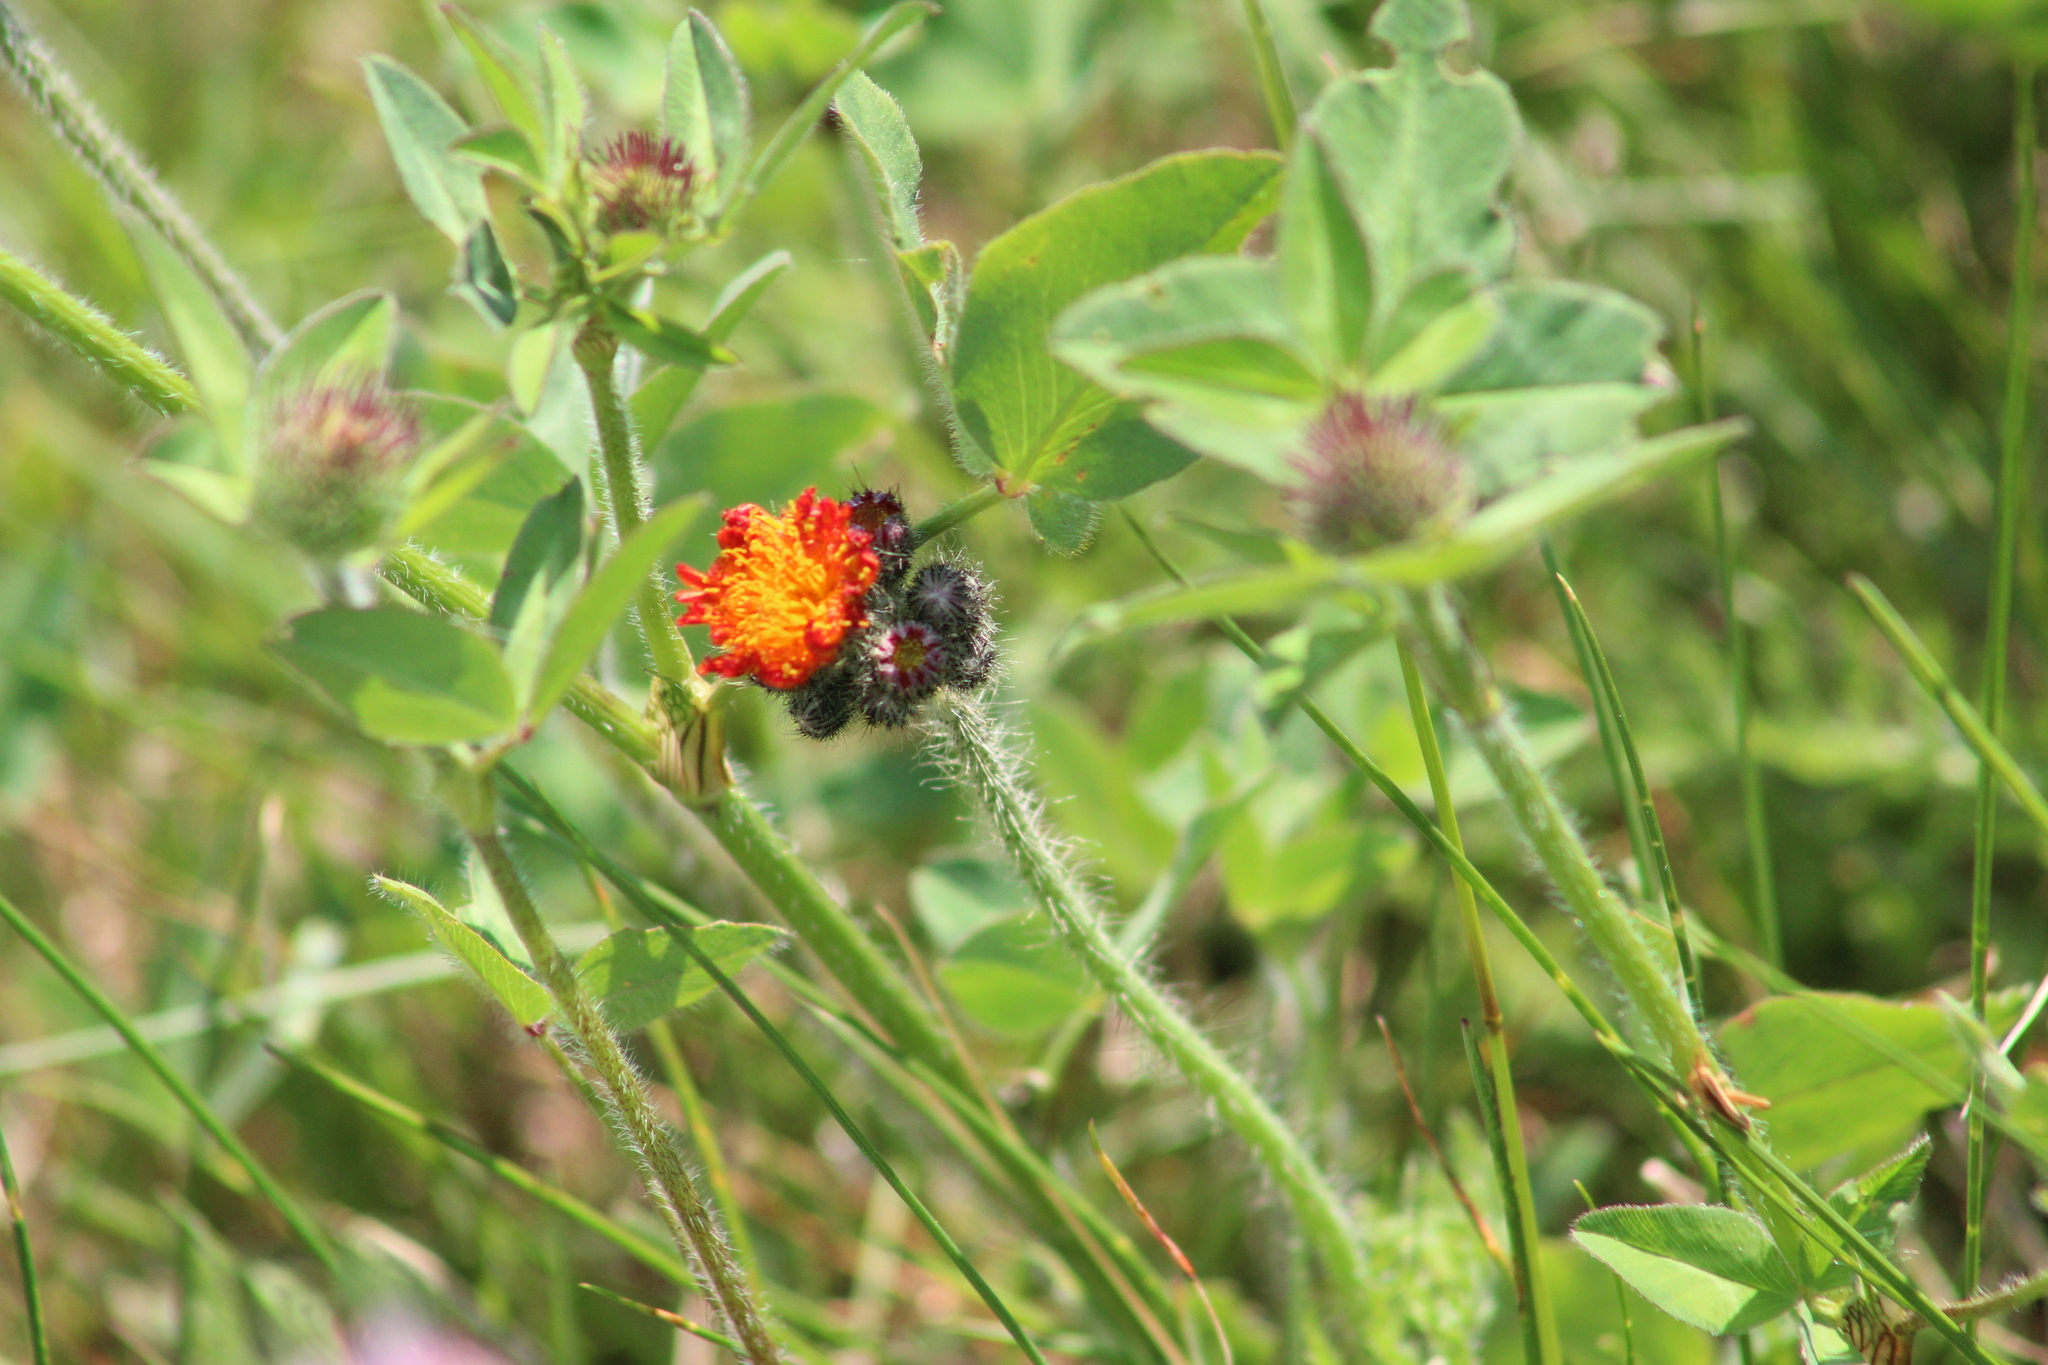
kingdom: Plantae
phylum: Tracheophyta
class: Magnoliopsida
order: Asterales
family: Asteraceae
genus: Pilosella
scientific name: Pilosella aurantiaca
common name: Fox-and-cubs
